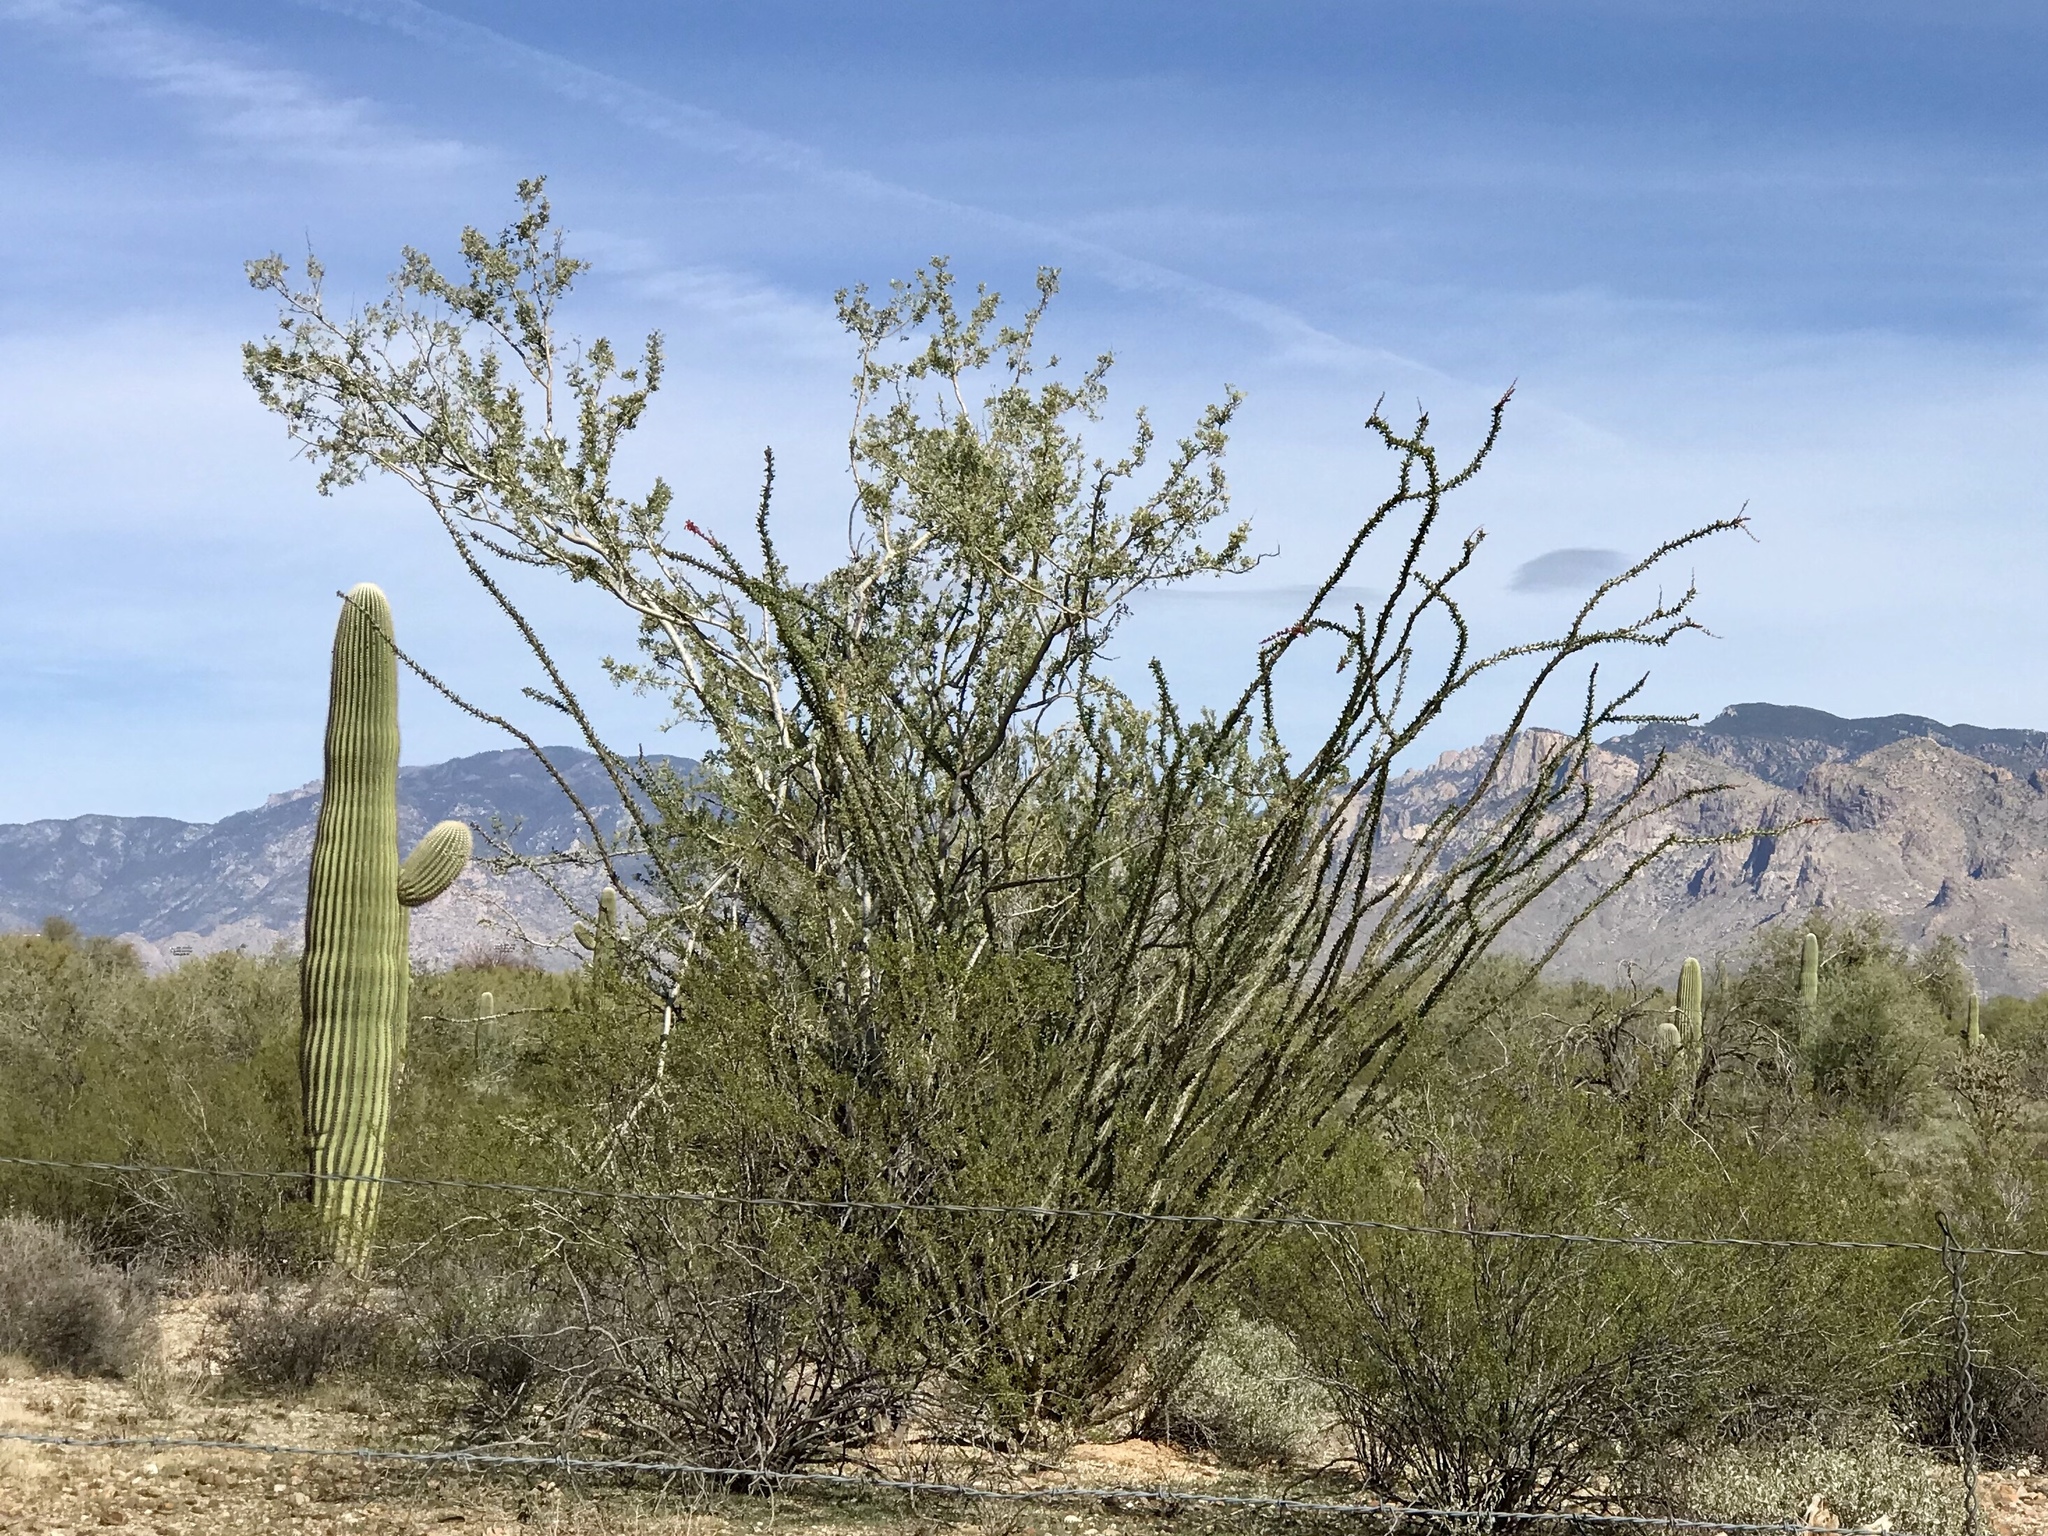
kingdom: Plantae
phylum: Tracheophyta
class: Magnoliopsida
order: Ericales
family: Fouquieriaceae
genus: Fouquieria
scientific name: Fouquieria splendens
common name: Vine-cactus
